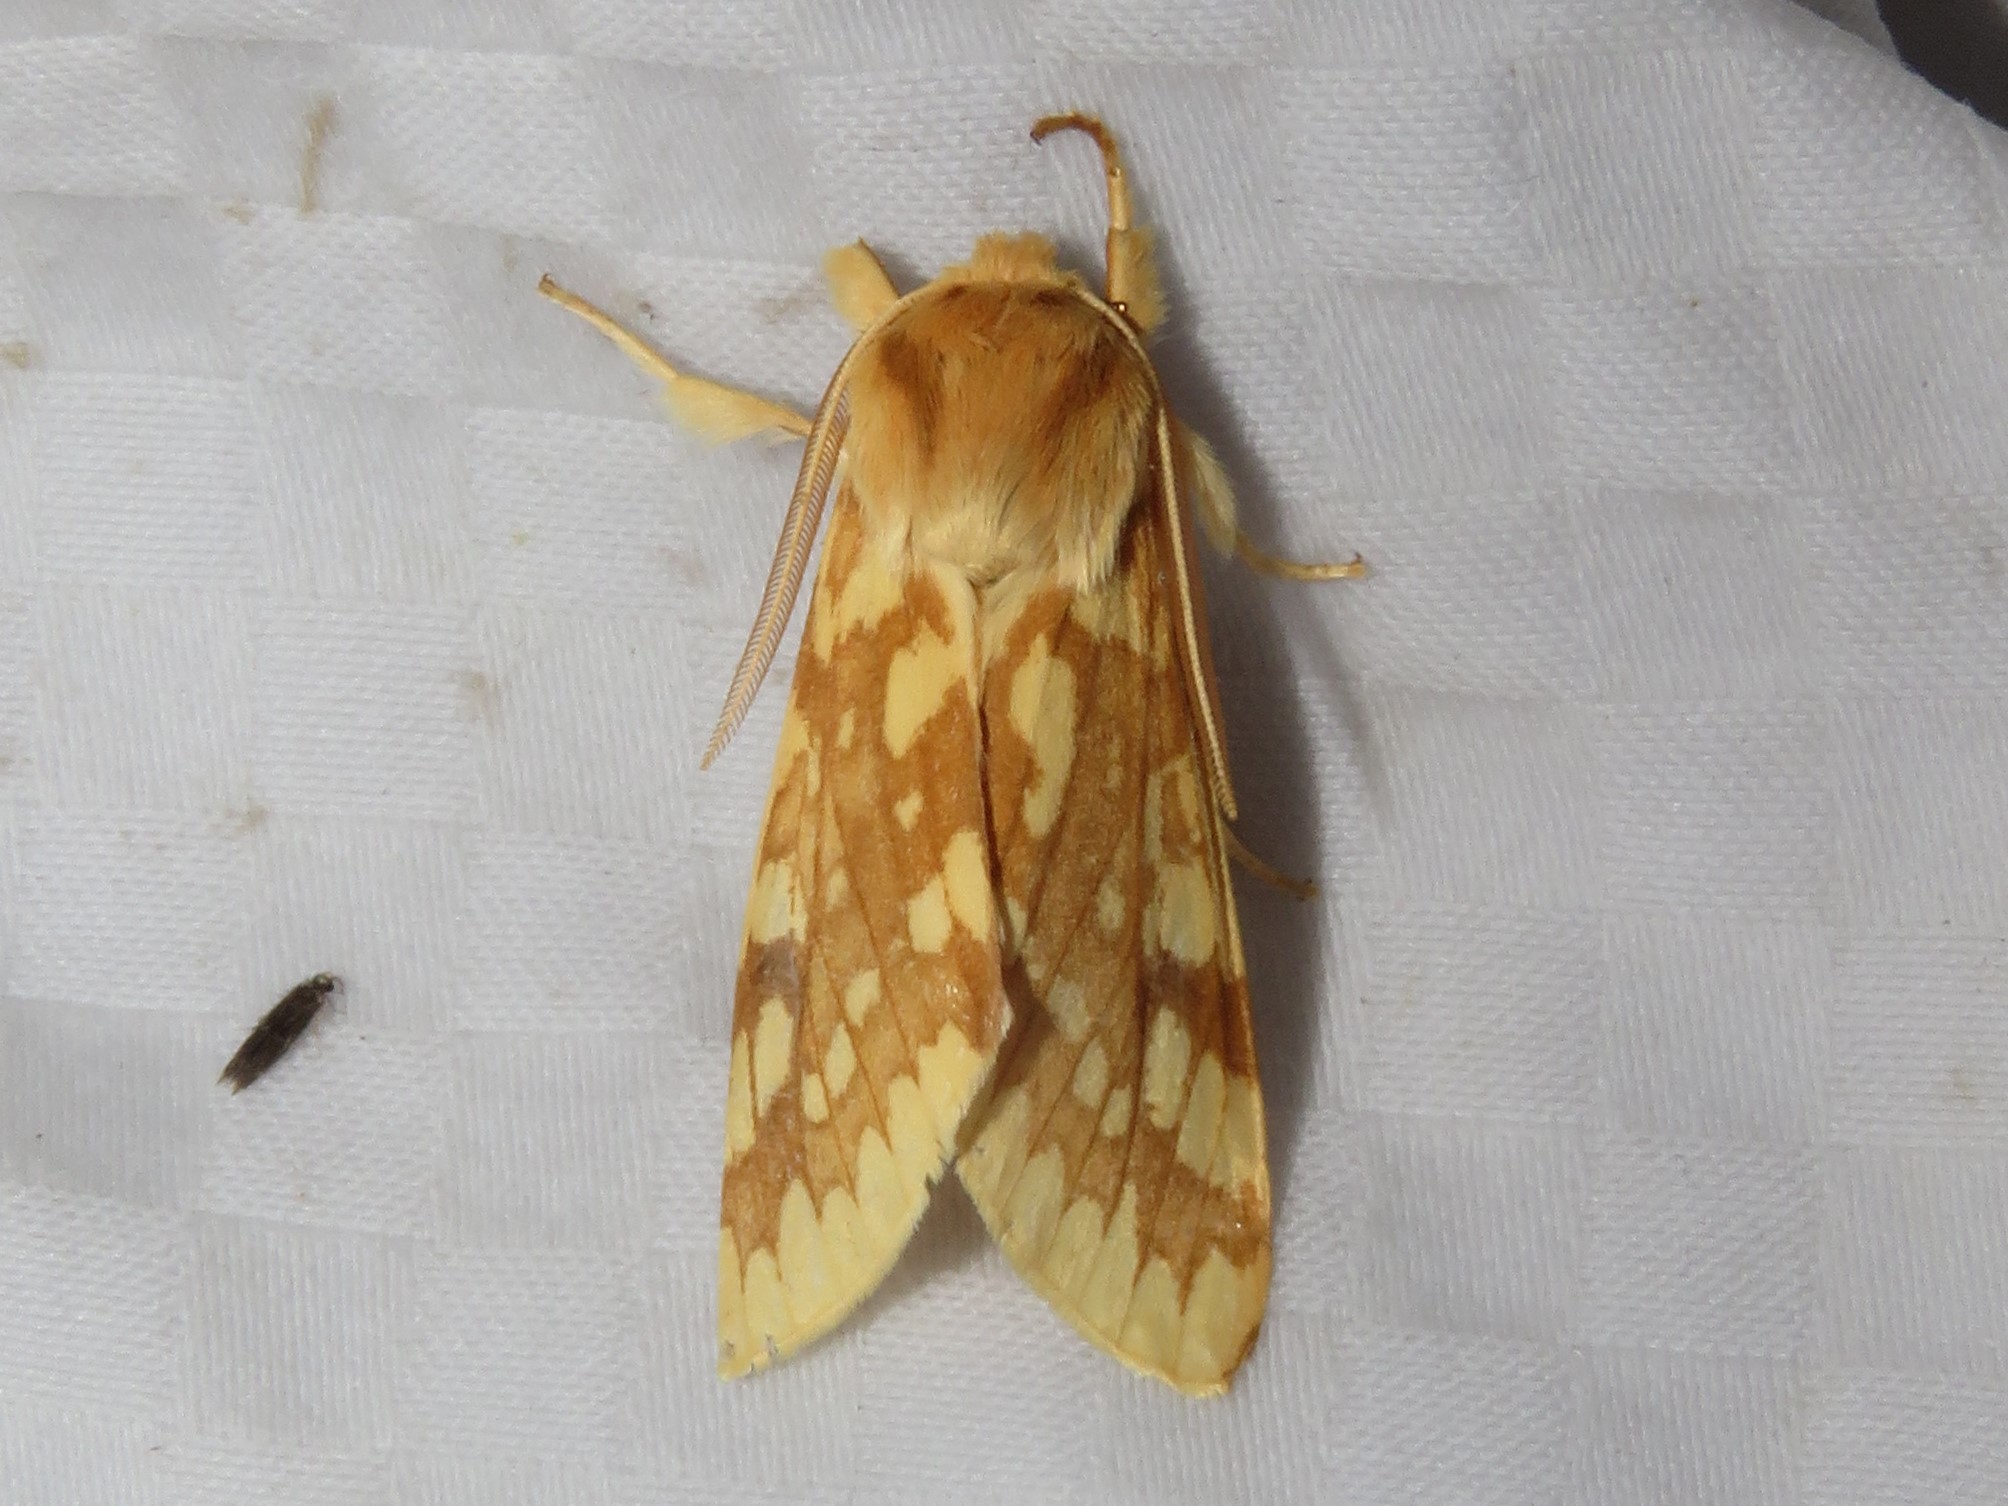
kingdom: Animalia
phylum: Arthropoda
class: Insecta
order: Lepidoptera
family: Erebidae
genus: Lophocampa
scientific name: Lophocampa maculata
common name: Spotted tussock moth
